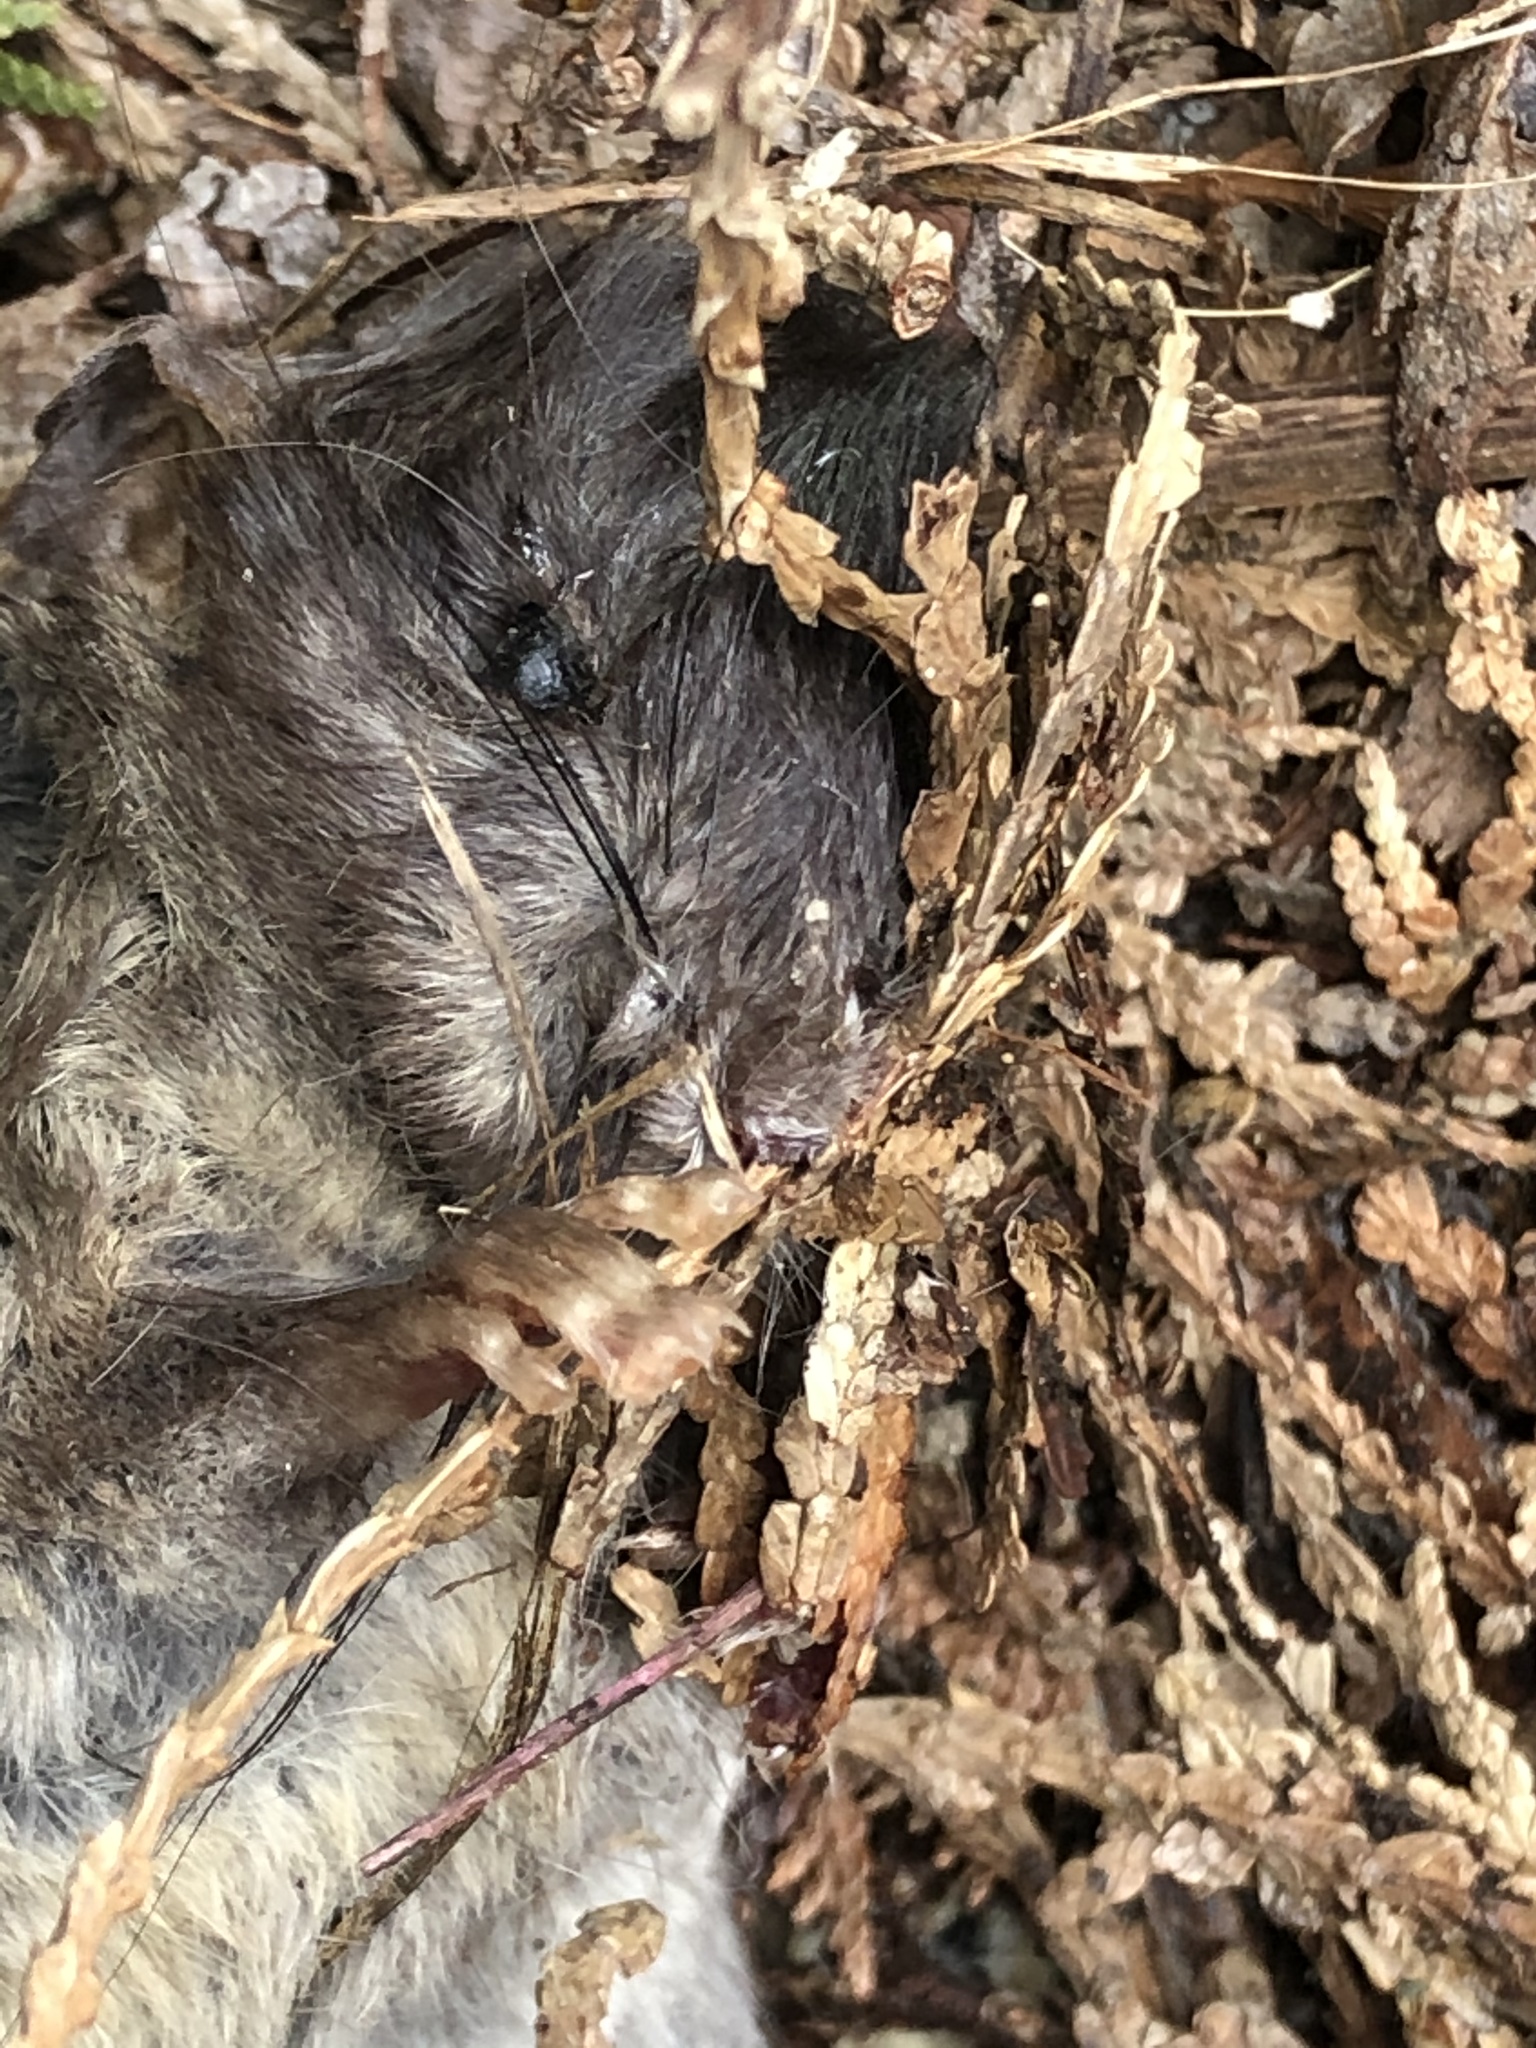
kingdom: Animalia
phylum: Chordata
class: Mammalia
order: Rodentia
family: Muridae
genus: Rattus
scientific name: Rattus norvegicus
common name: Brown rat
